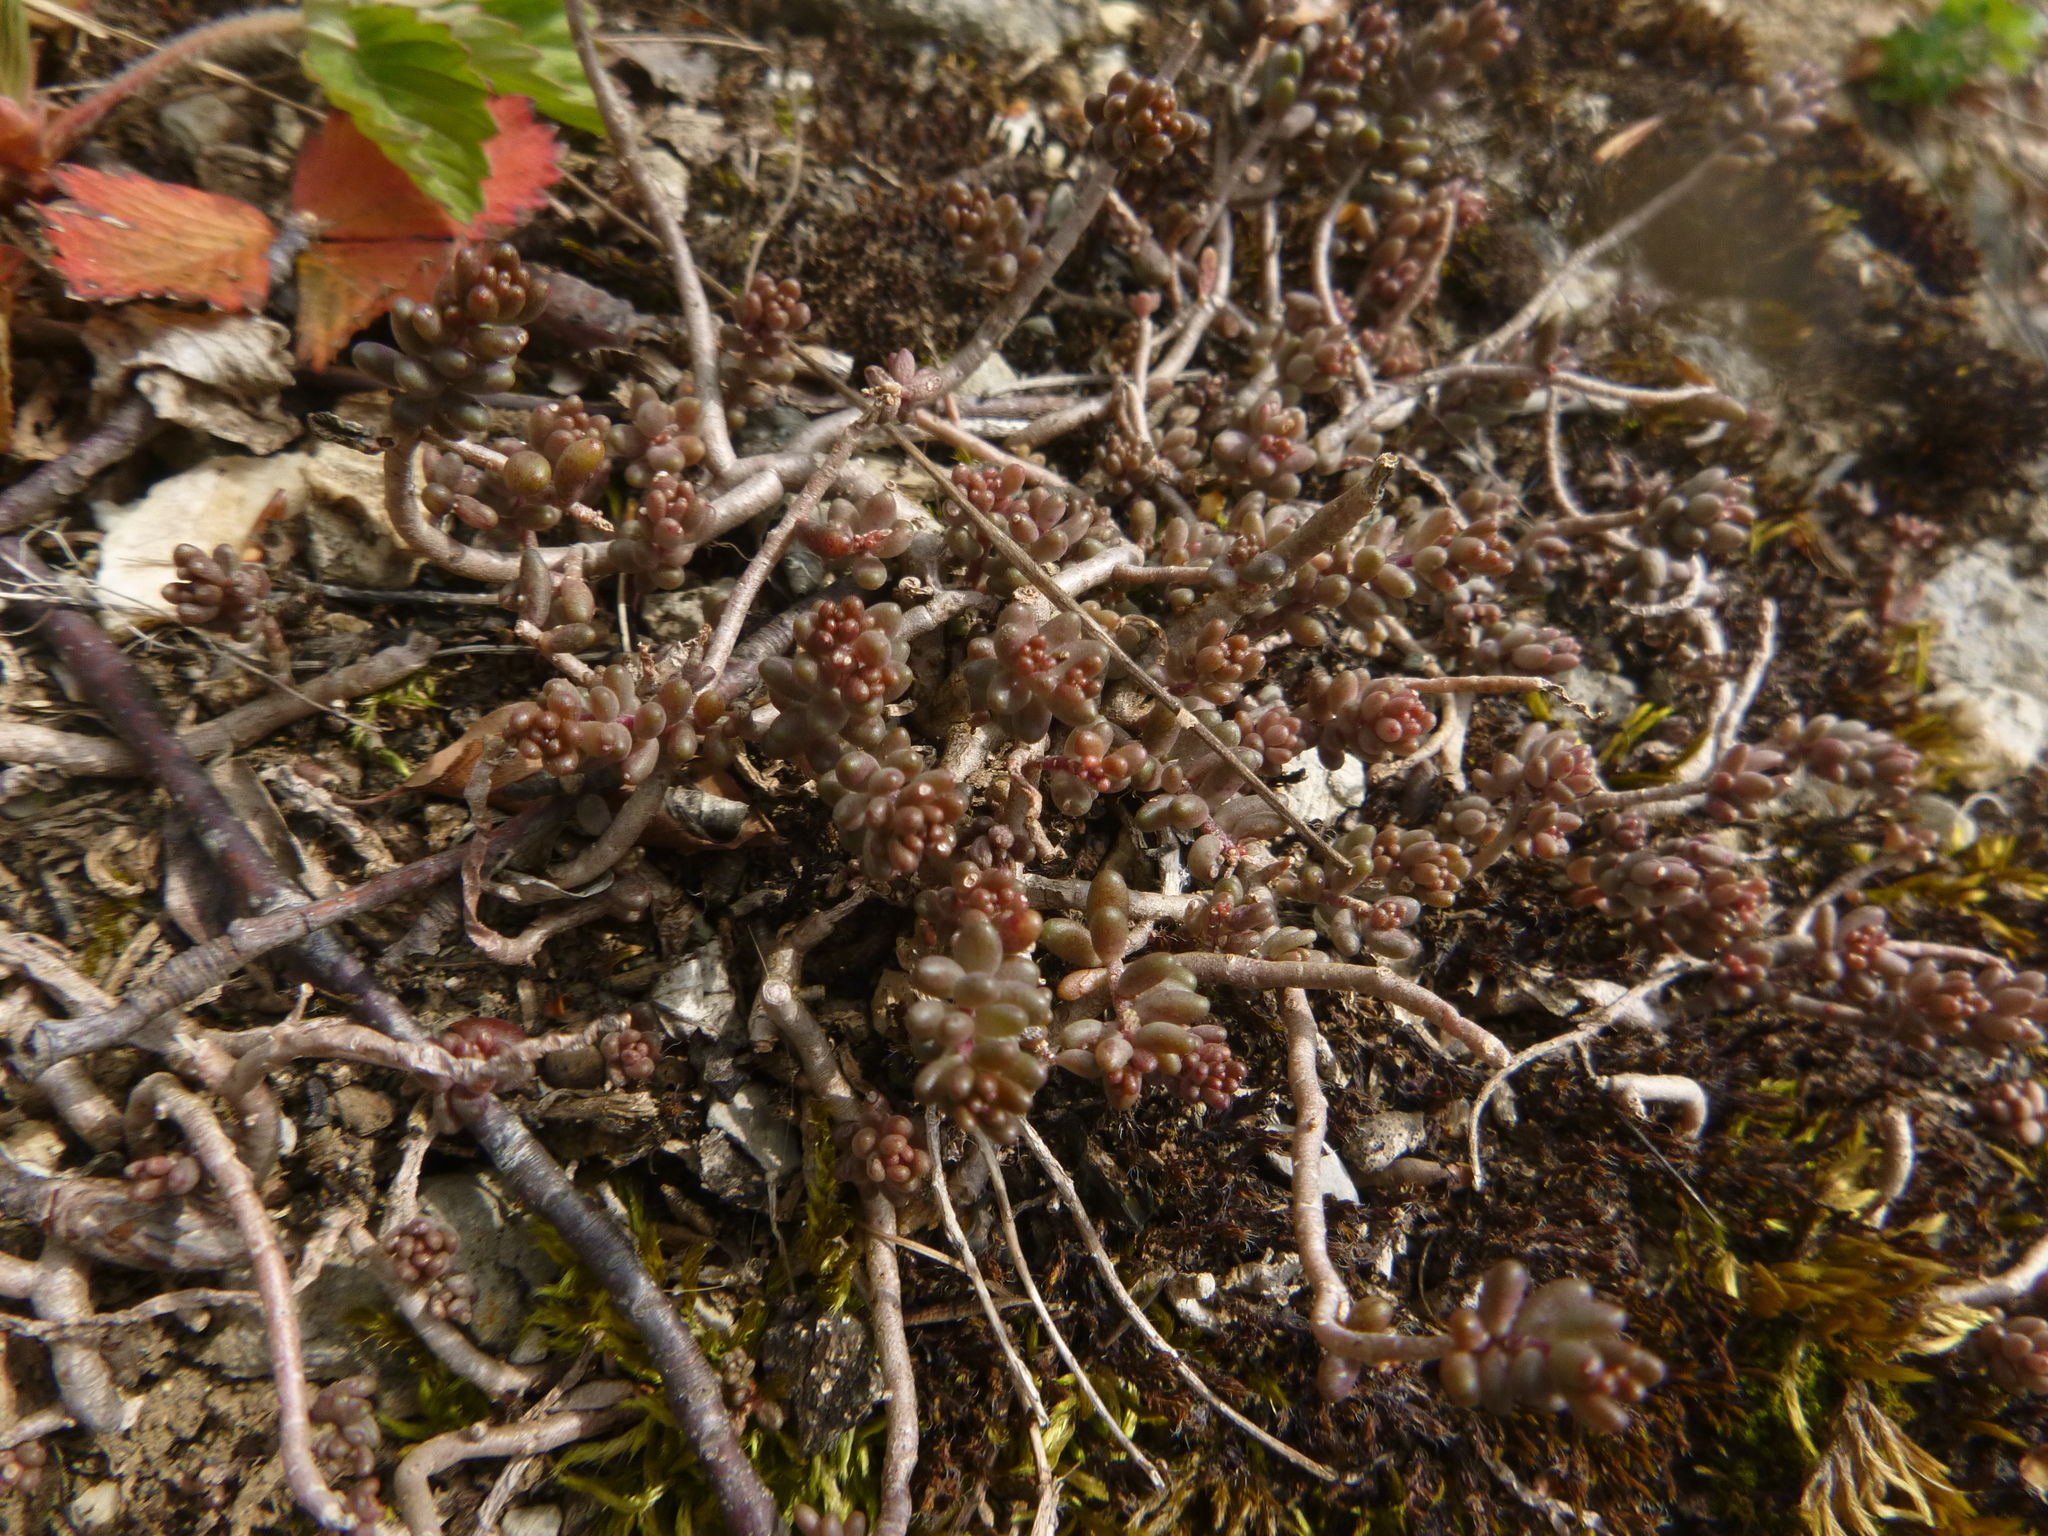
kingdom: Plantae
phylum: Tracheophyta
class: Magnoliopsida
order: Saxifragales
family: Crassulaceae
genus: Sedum
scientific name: Sedum album
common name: White stonecrop
